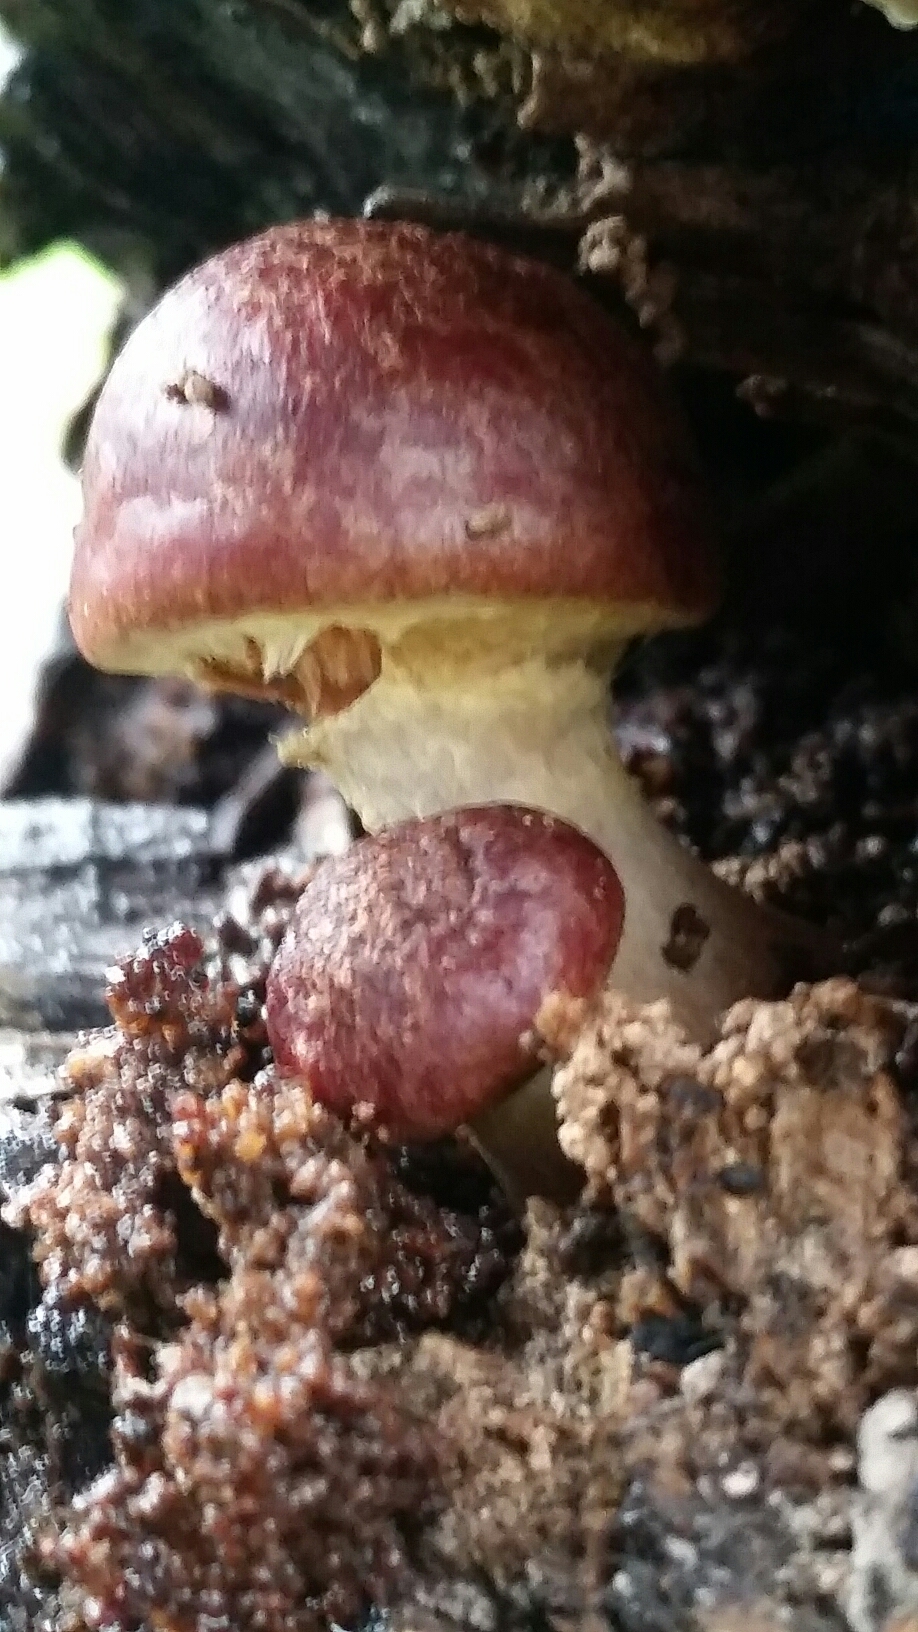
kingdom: Fungi
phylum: Basidiomycota
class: Agaricomycetes
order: Agaricales
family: Hymenogastraceae
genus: Gymnopilus
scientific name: Gymnopilus luteofolius
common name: Yellow-gilled gymnopilus
